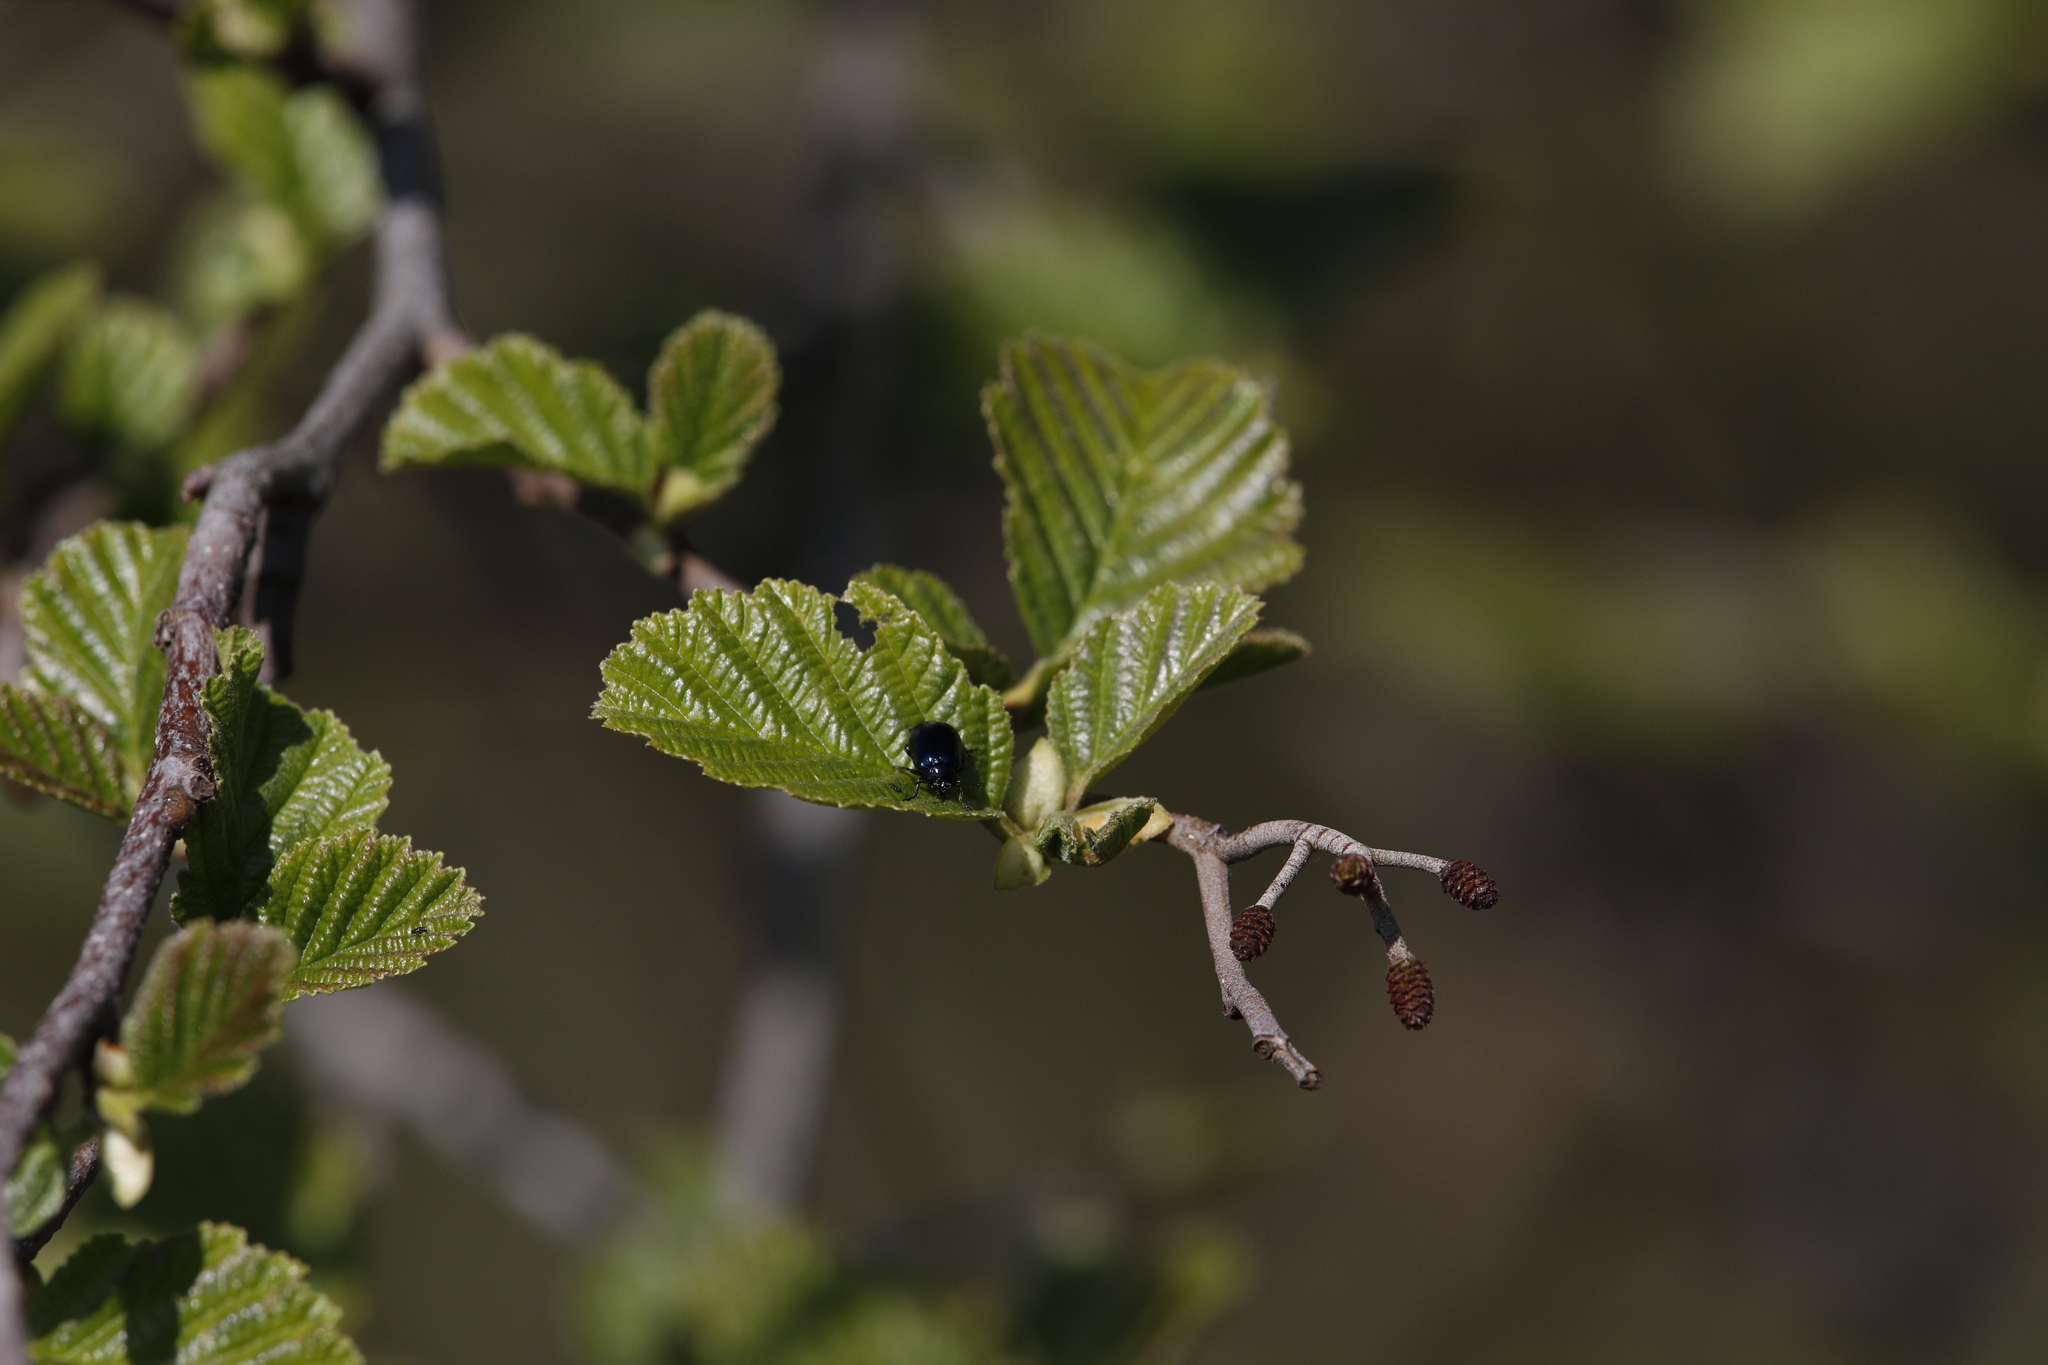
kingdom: Animalia
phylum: Arthropoda
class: Insecta
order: Coleoptera
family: Chrysomelidae
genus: Agelastica
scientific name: Agelastica alni
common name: Alder leaf beetle
